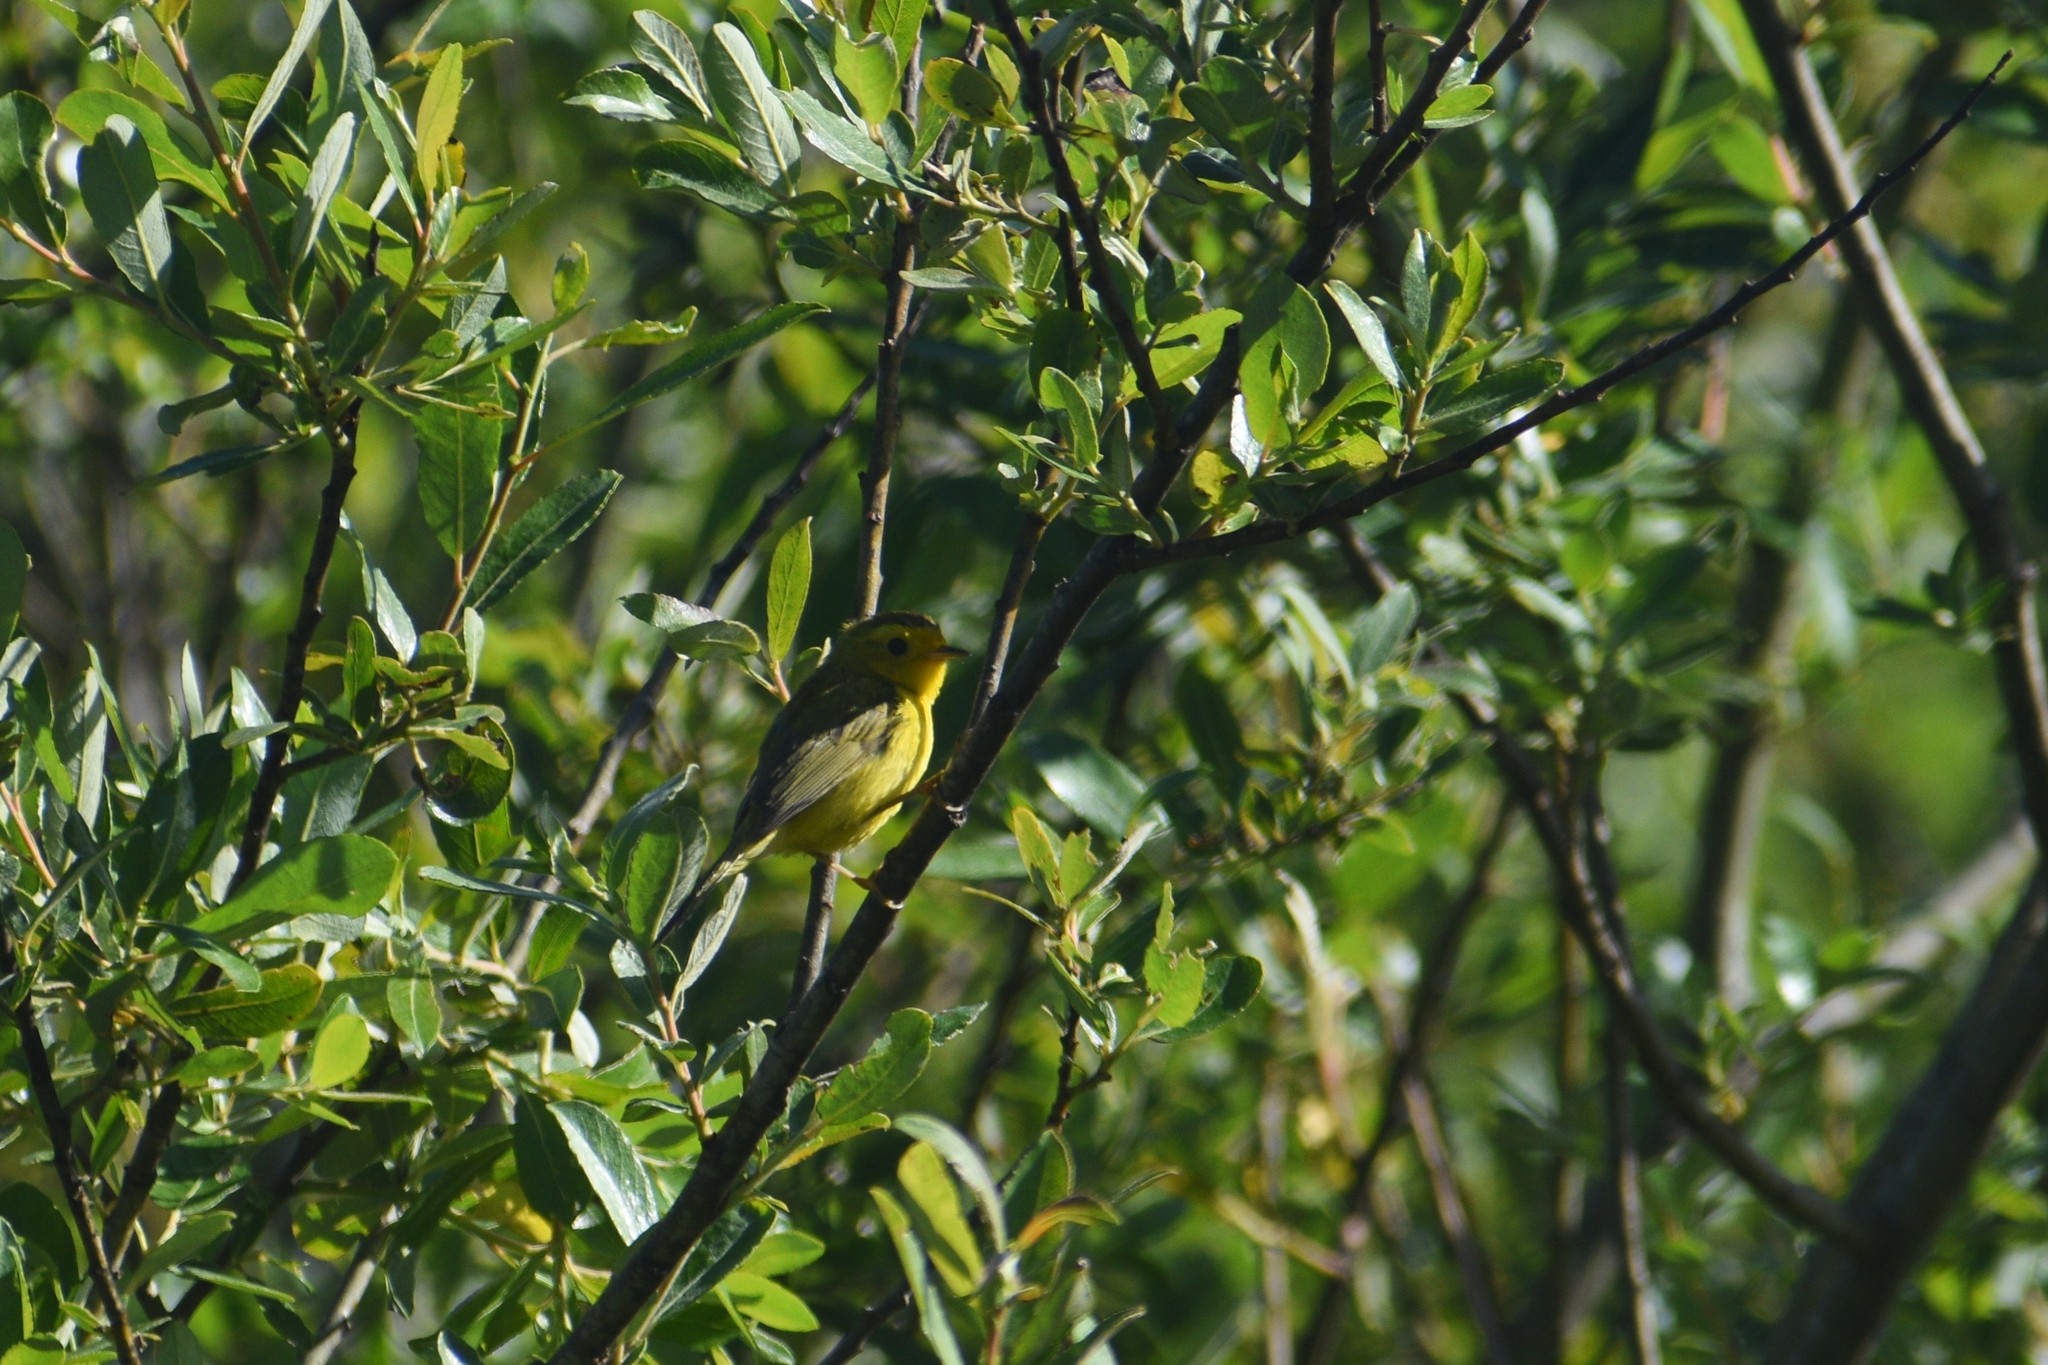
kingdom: Animalia
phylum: Chordata
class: Aves
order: Passeriformes
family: Parulidae
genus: Cardellina
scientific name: Cardellina pusilla
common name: Wilson's warbler
